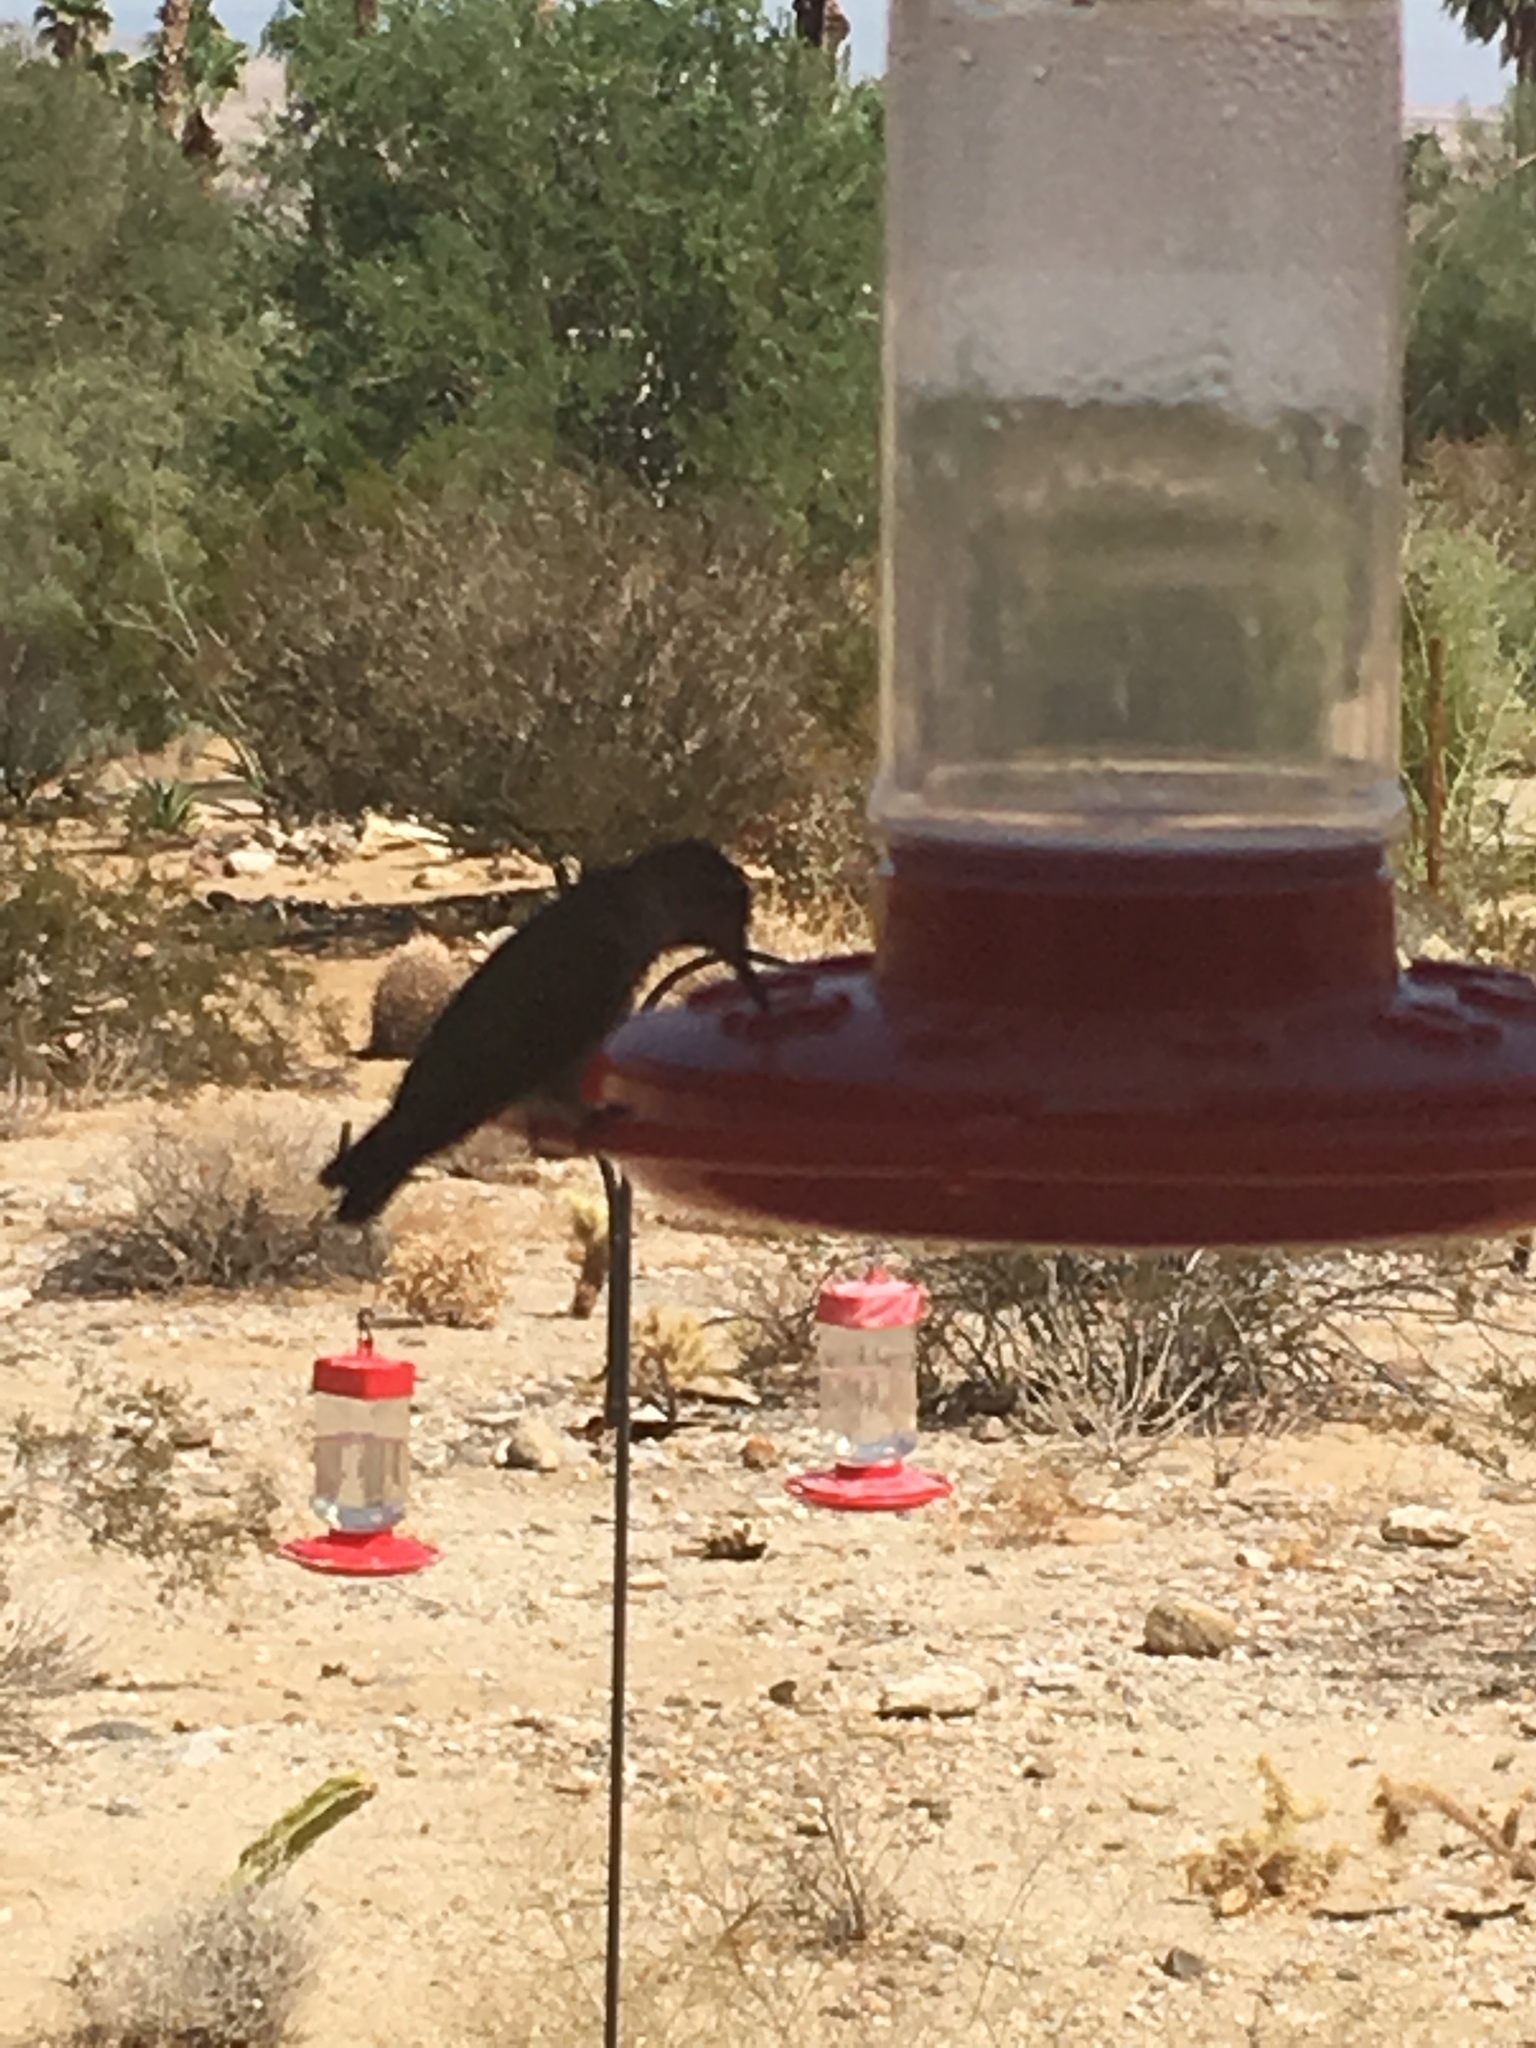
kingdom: Animalia
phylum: Chordata
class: Aves
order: Apodiformes
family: Trochilidae
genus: Calypte
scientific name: Calypte anna
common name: Anna's hummingbird
